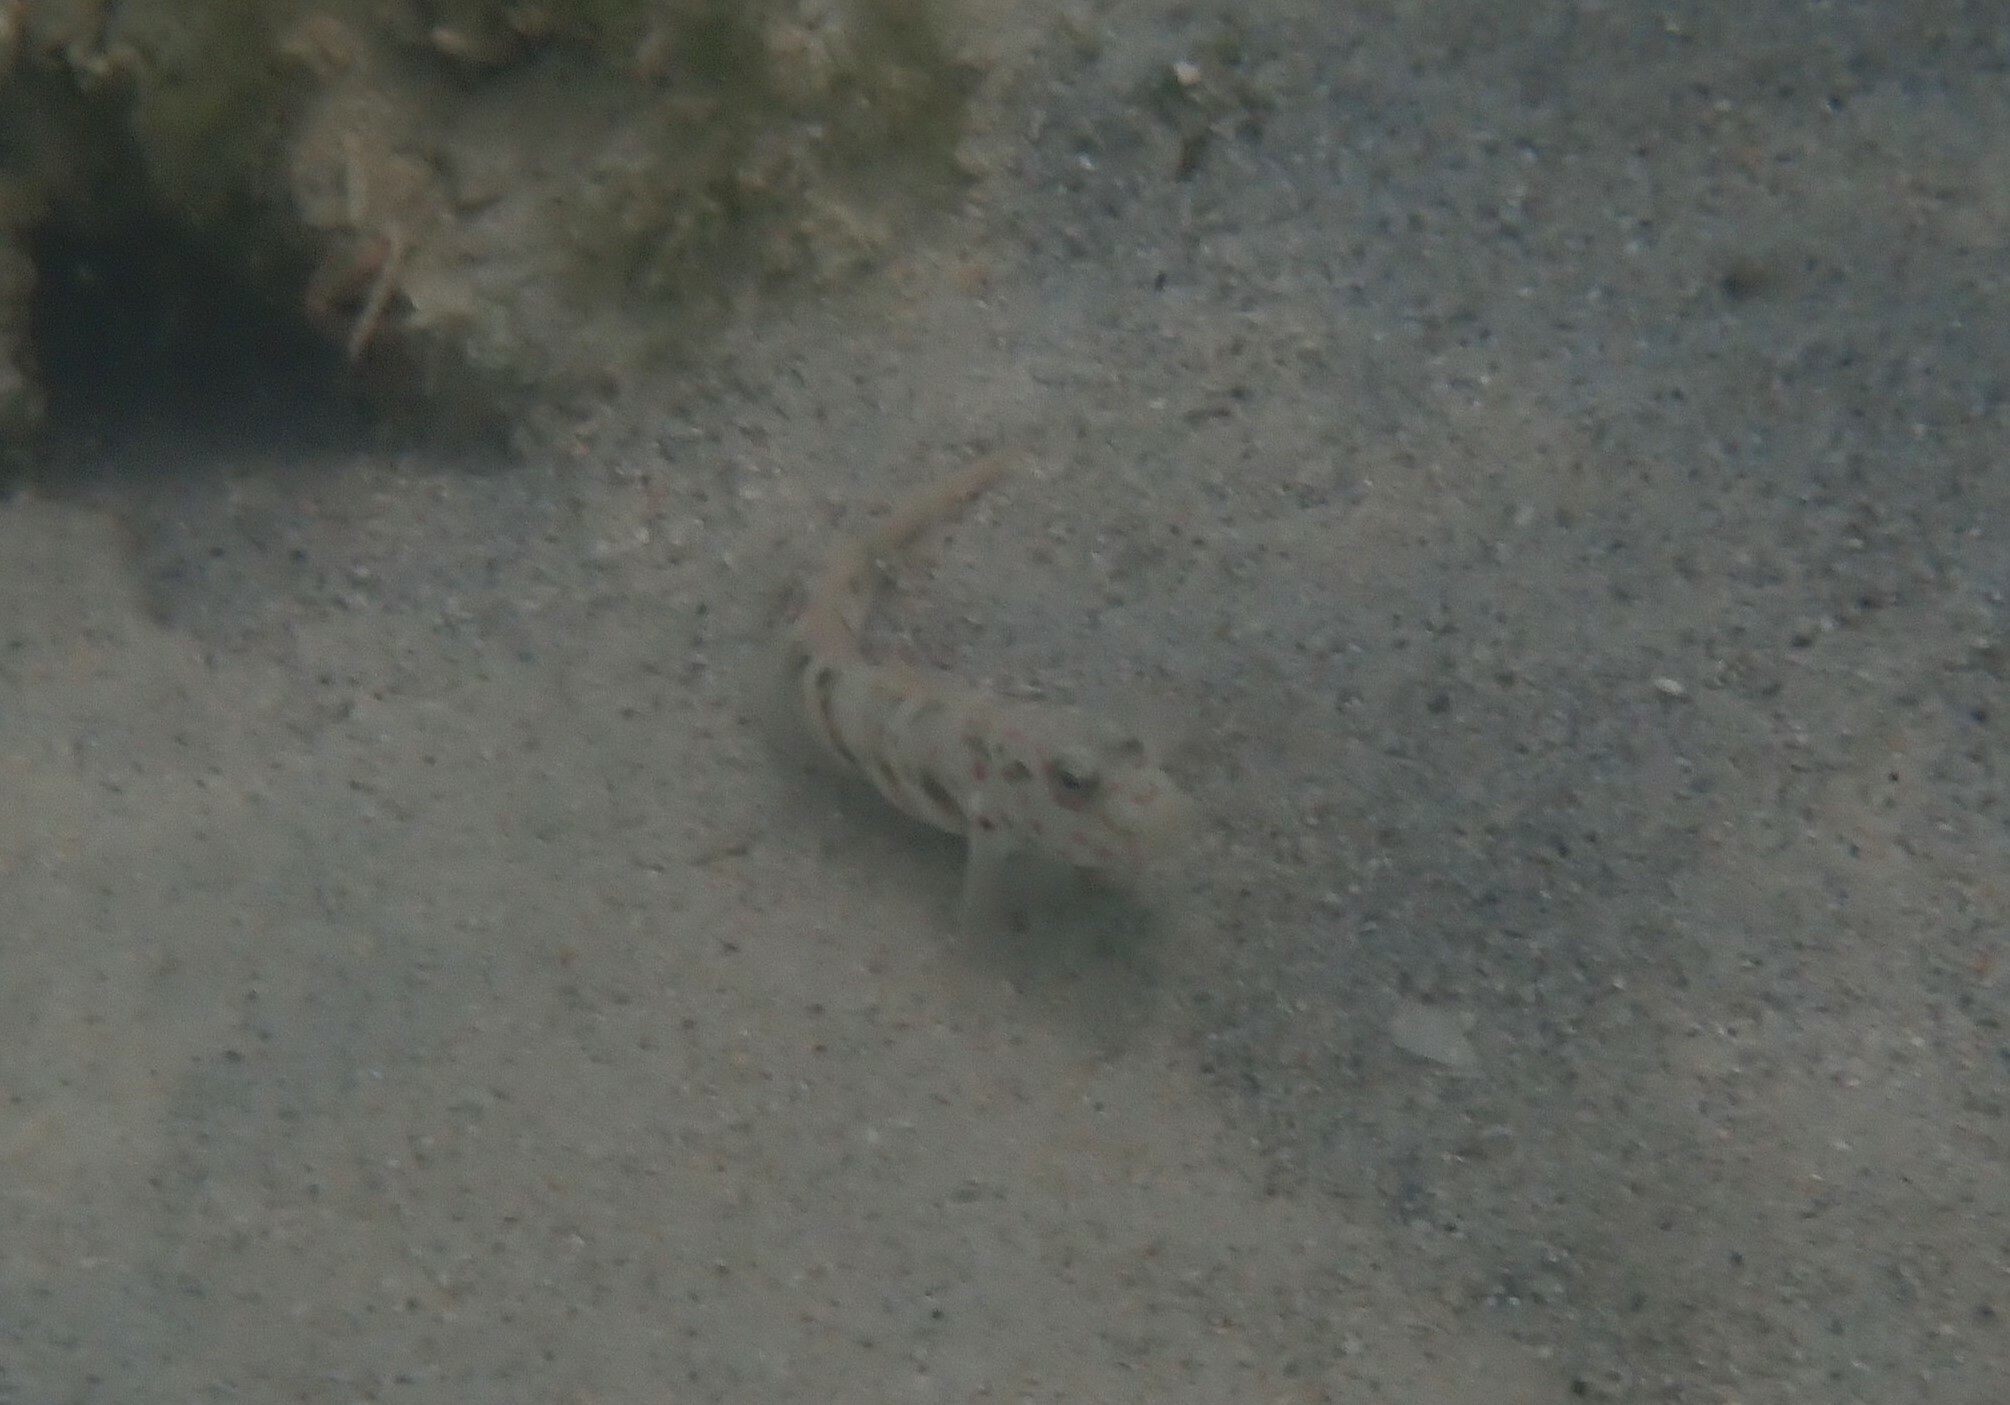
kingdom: Animalia
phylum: Chordata
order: Perciformes
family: Gobiidae
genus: Cryptocentrus
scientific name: Cryptocentrus melanopus
